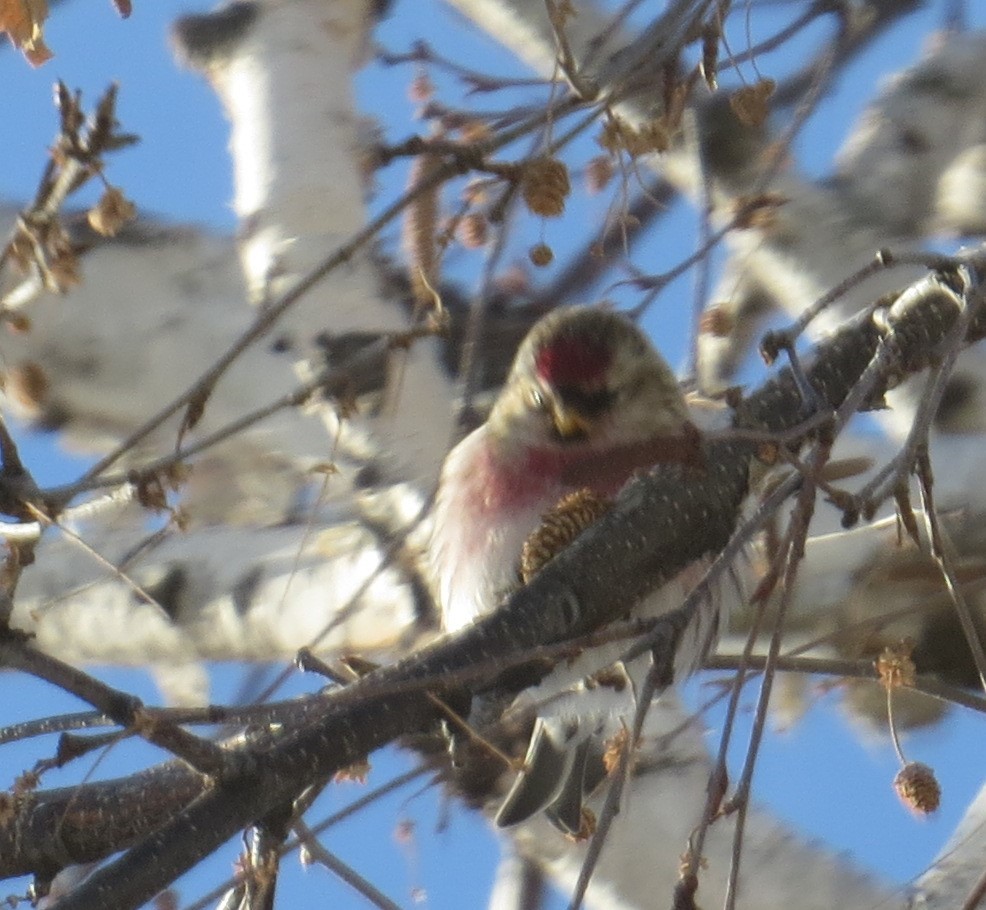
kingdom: Animalia
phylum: Chordata
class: Aves
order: Passeriformes
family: Fringillidae
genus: Acanthis
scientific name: Acanthis flammea
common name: Common redpoll
